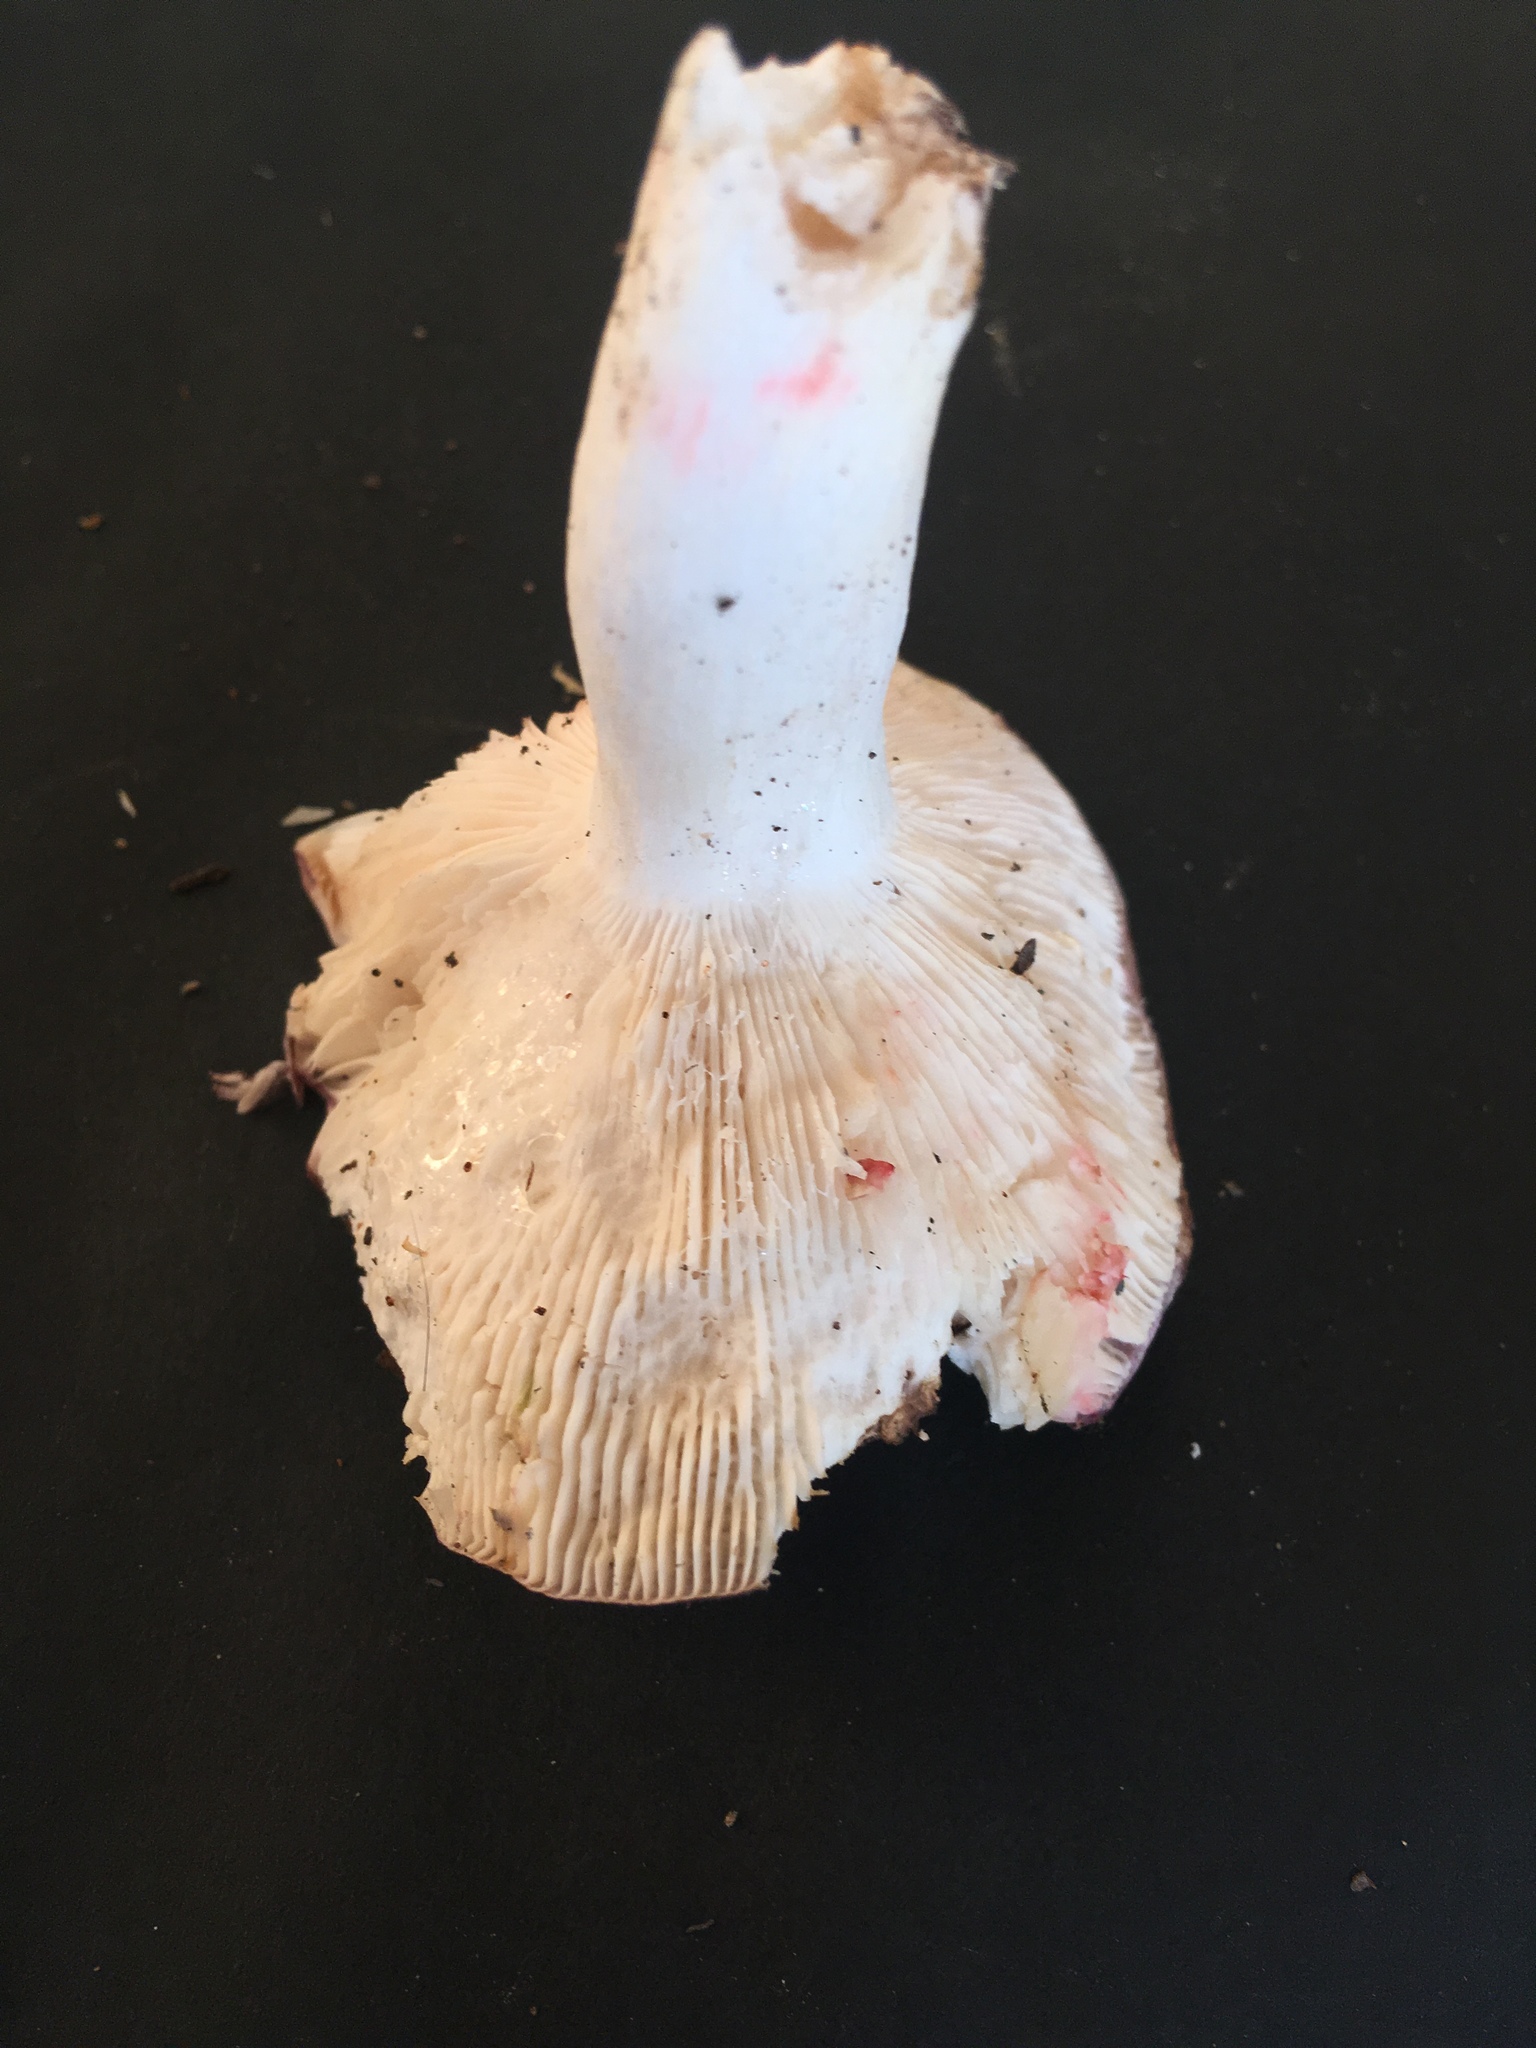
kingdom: Fungi
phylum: Basidiomycota
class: Agaricomycetes
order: Russulales
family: Russulaceae
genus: Russula
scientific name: Russula cyanoxantha
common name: Charcoal burner
